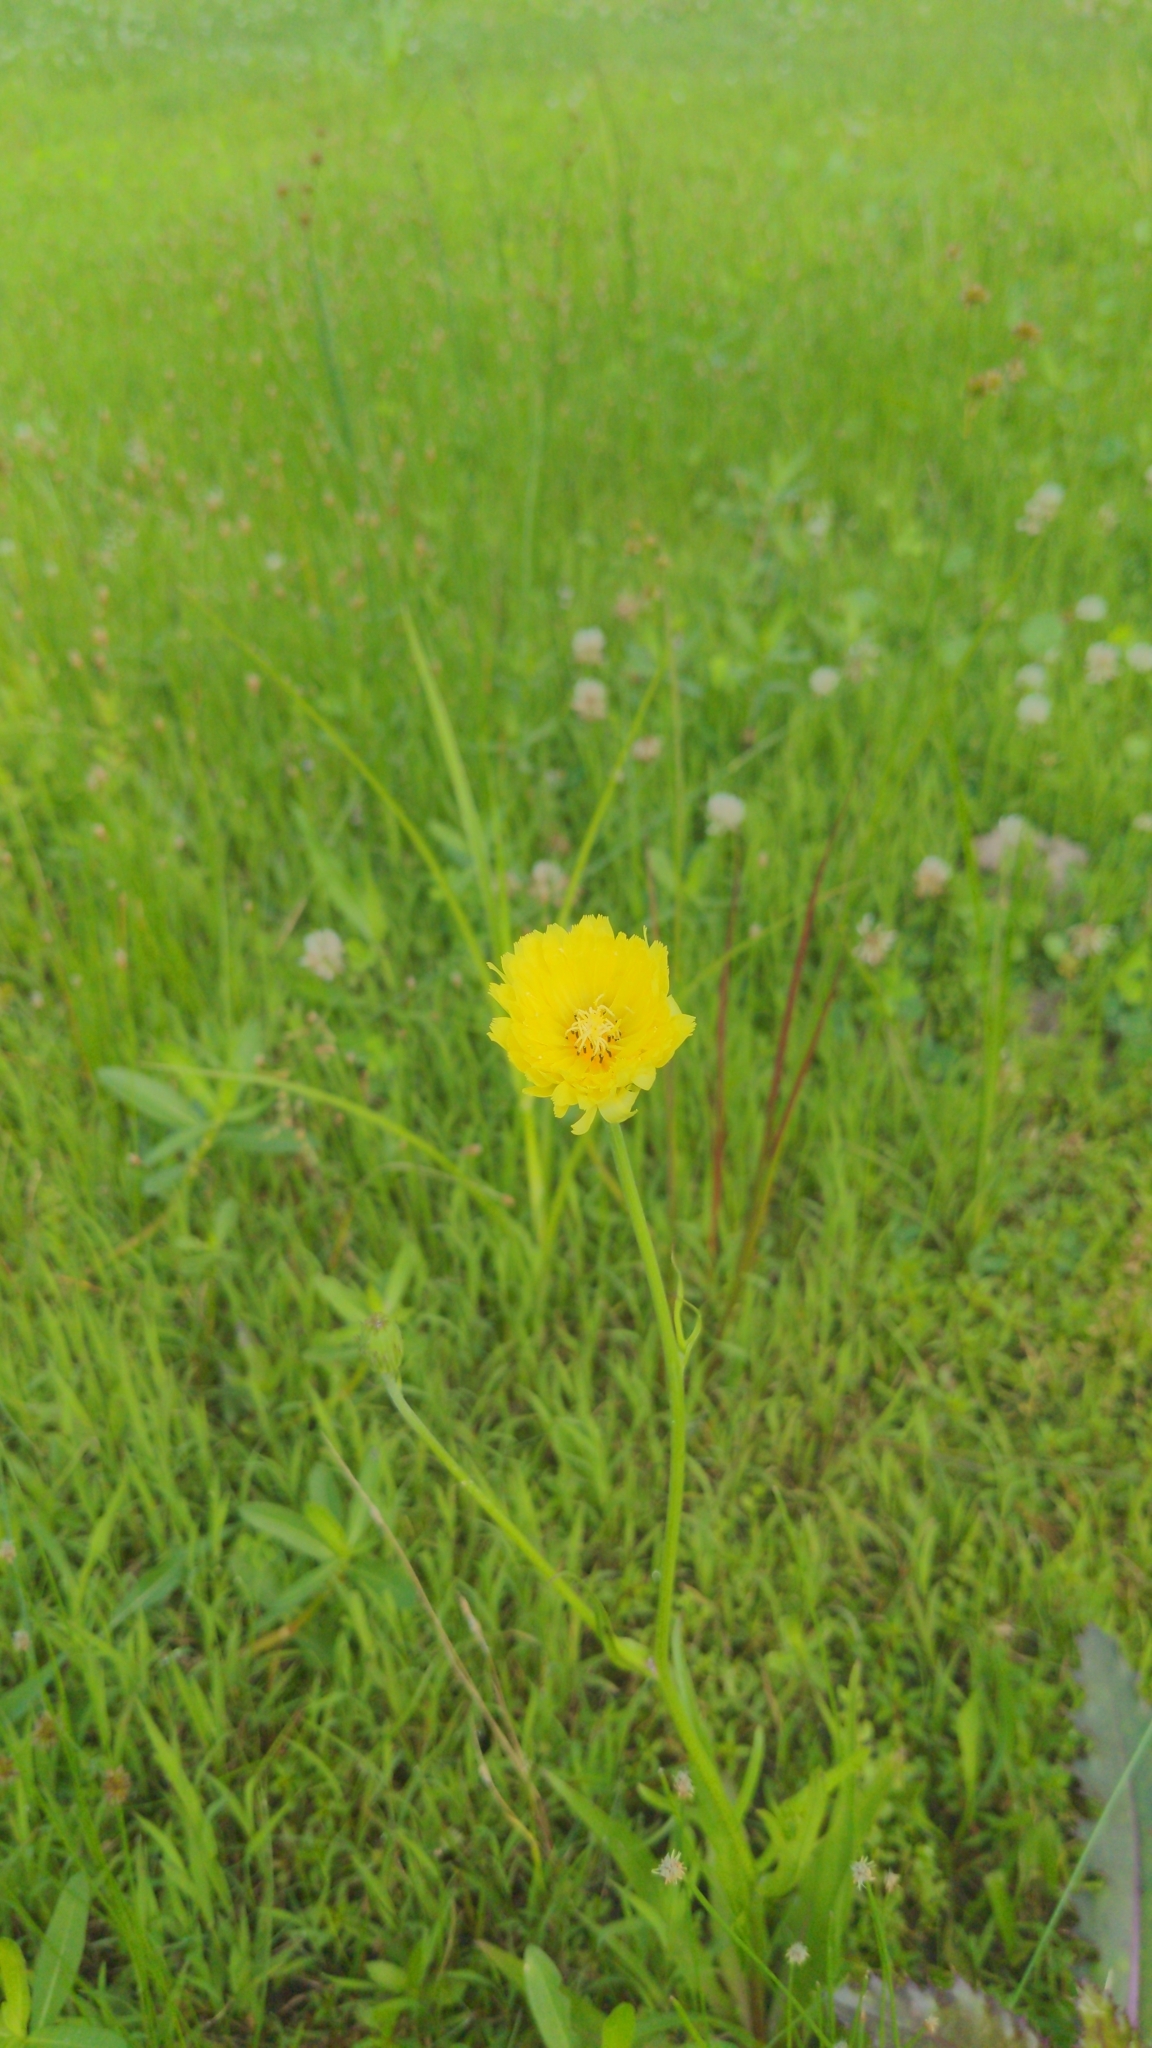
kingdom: Plantae
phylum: Tracheophyta
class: Magnoliopsida
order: Asterales
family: Asteraceae
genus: Pyrrhopappus
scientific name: Pyrrhopappus carolinianus
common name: Carolina desert-chicory
